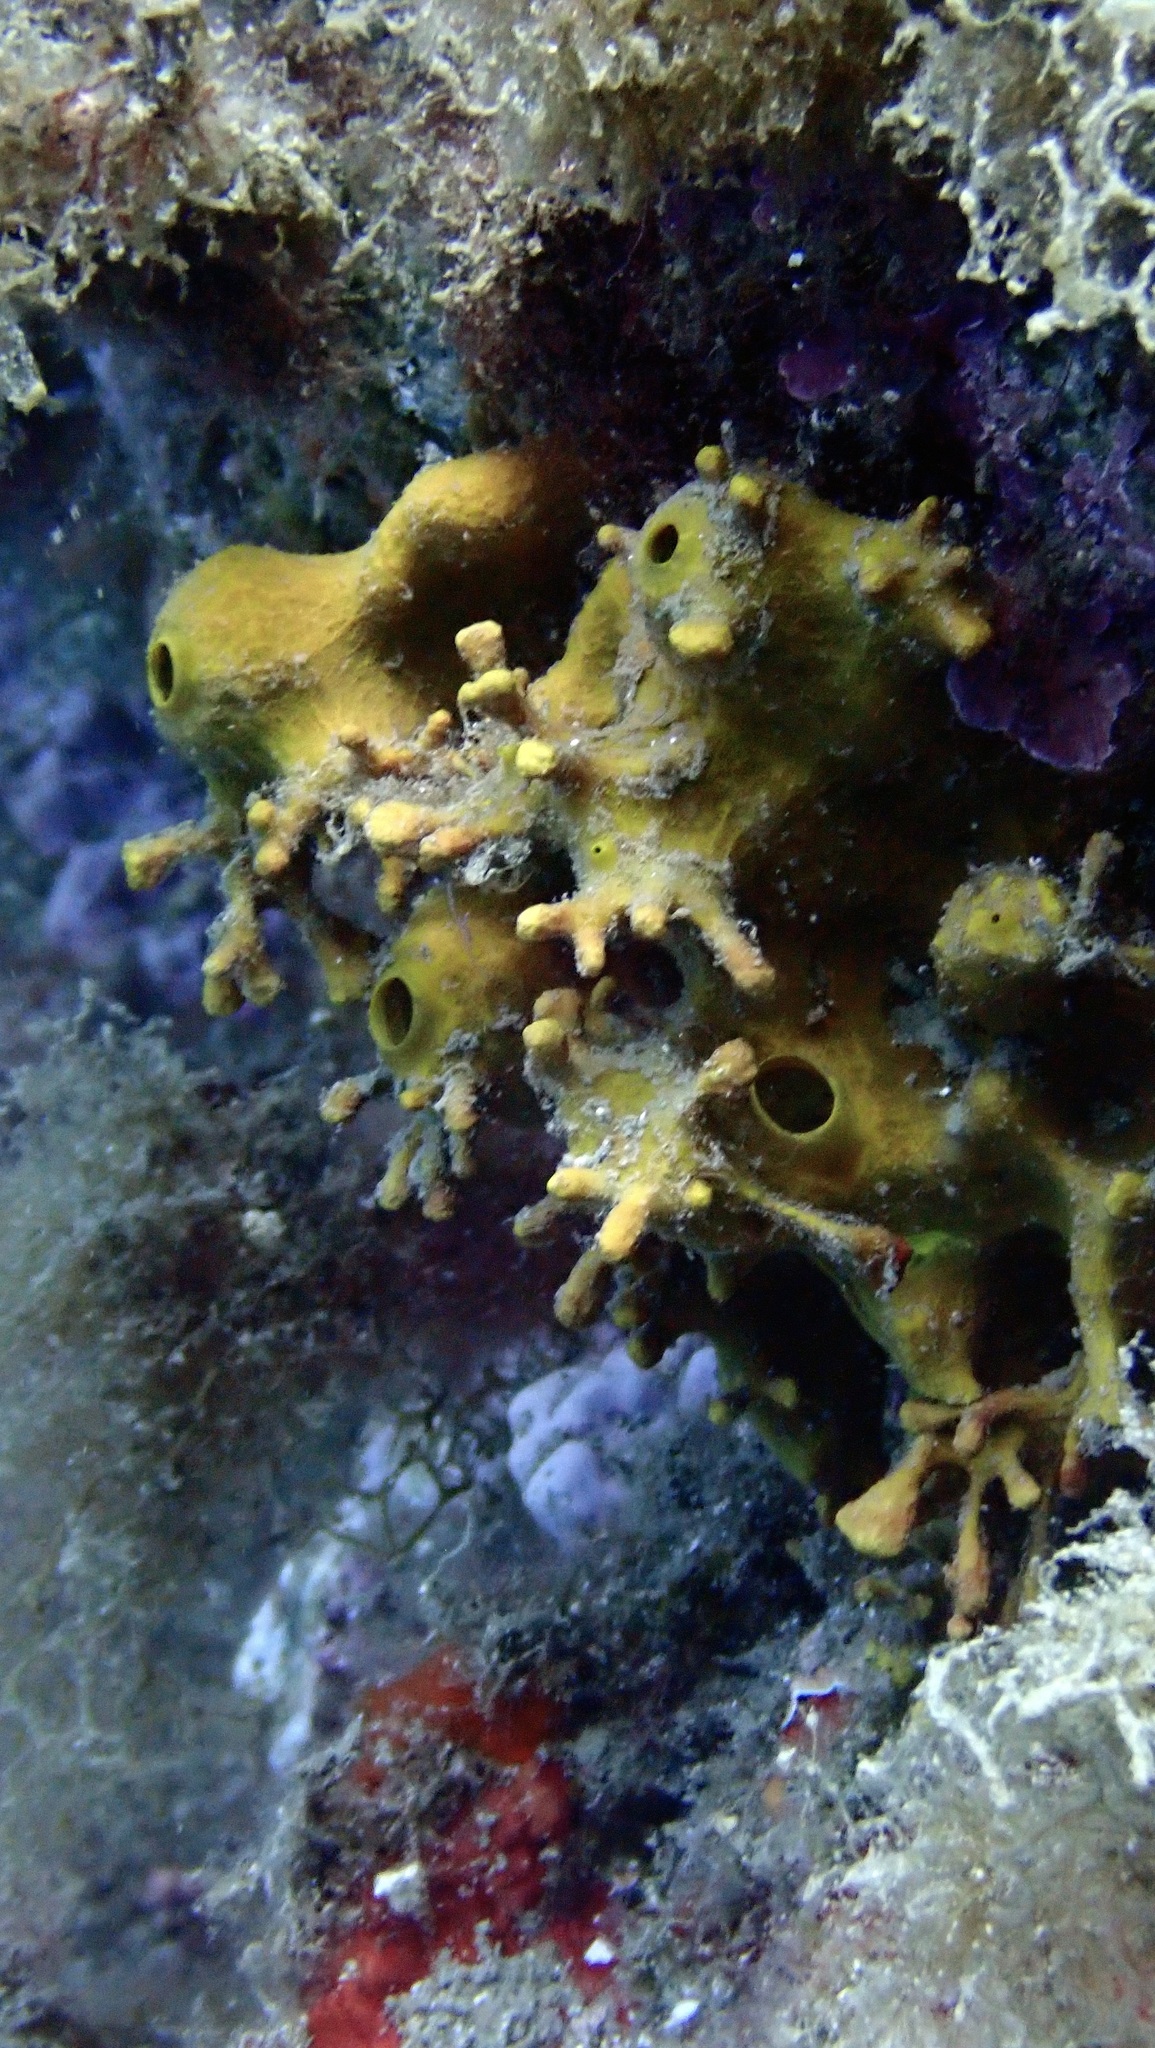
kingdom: Animalia
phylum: Porifera
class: Demospongiae
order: Verongiida
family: Aplysinidae
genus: Aplysina
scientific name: Aplysina aerophoba
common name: Aureate sponge
